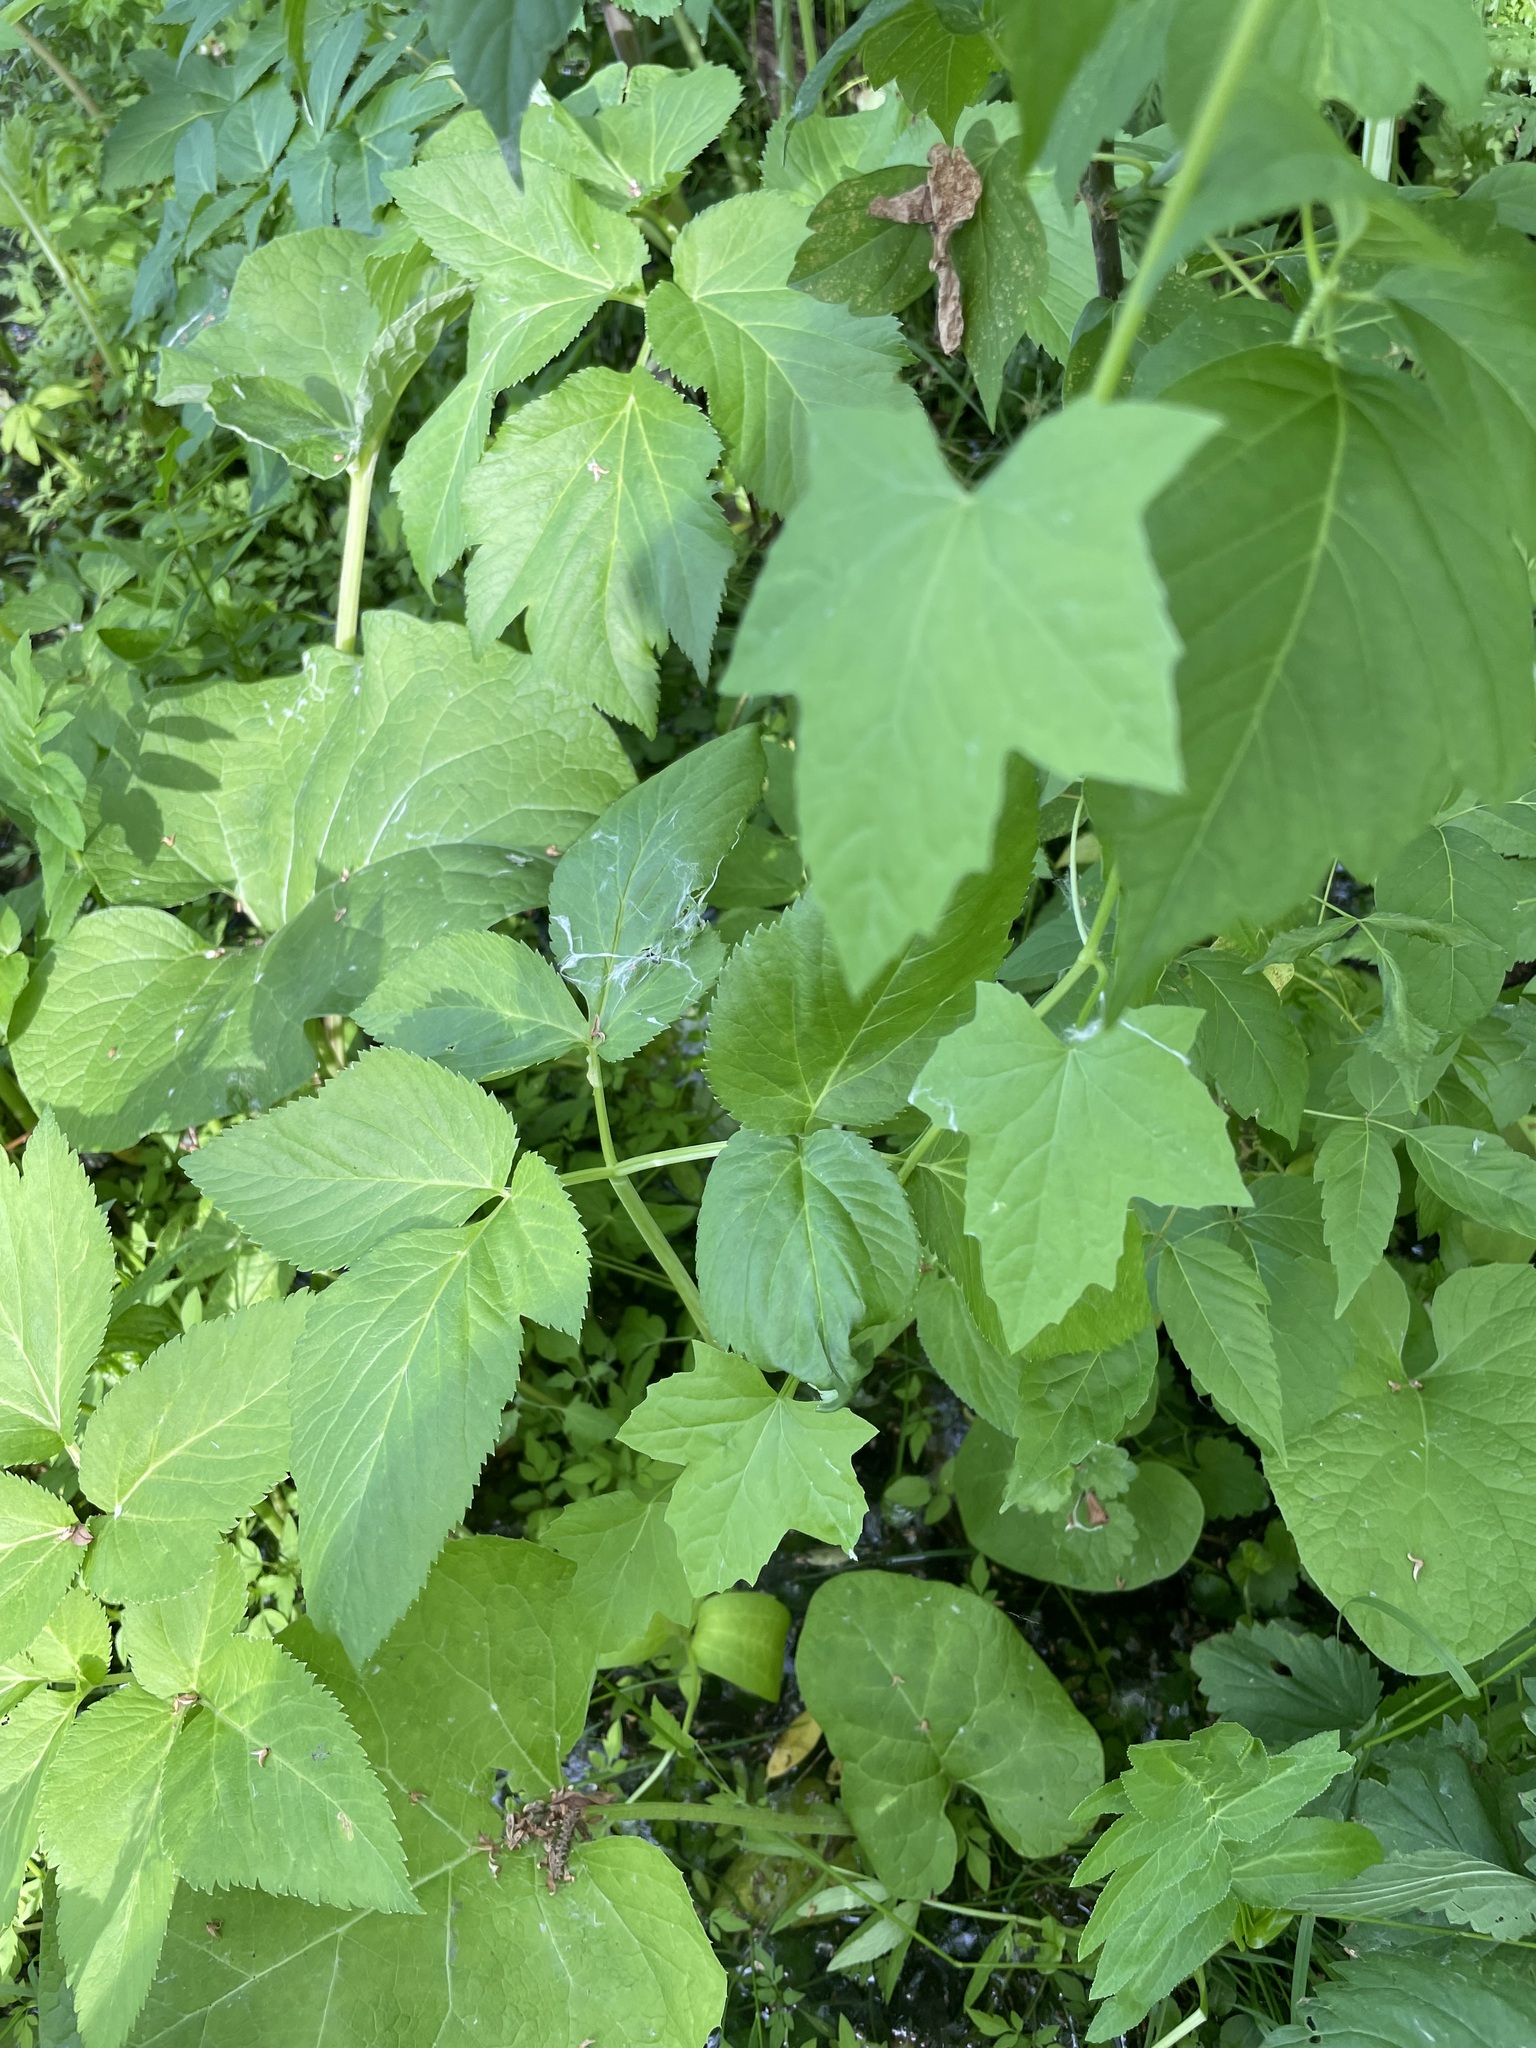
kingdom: Plantae
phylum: Tracheophyta
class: Magnoliopsida
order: Cucurbitales
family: Cucurbitaceae
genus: Echinocystis
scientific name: Echinocystis lobata
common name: Wild cucumber
